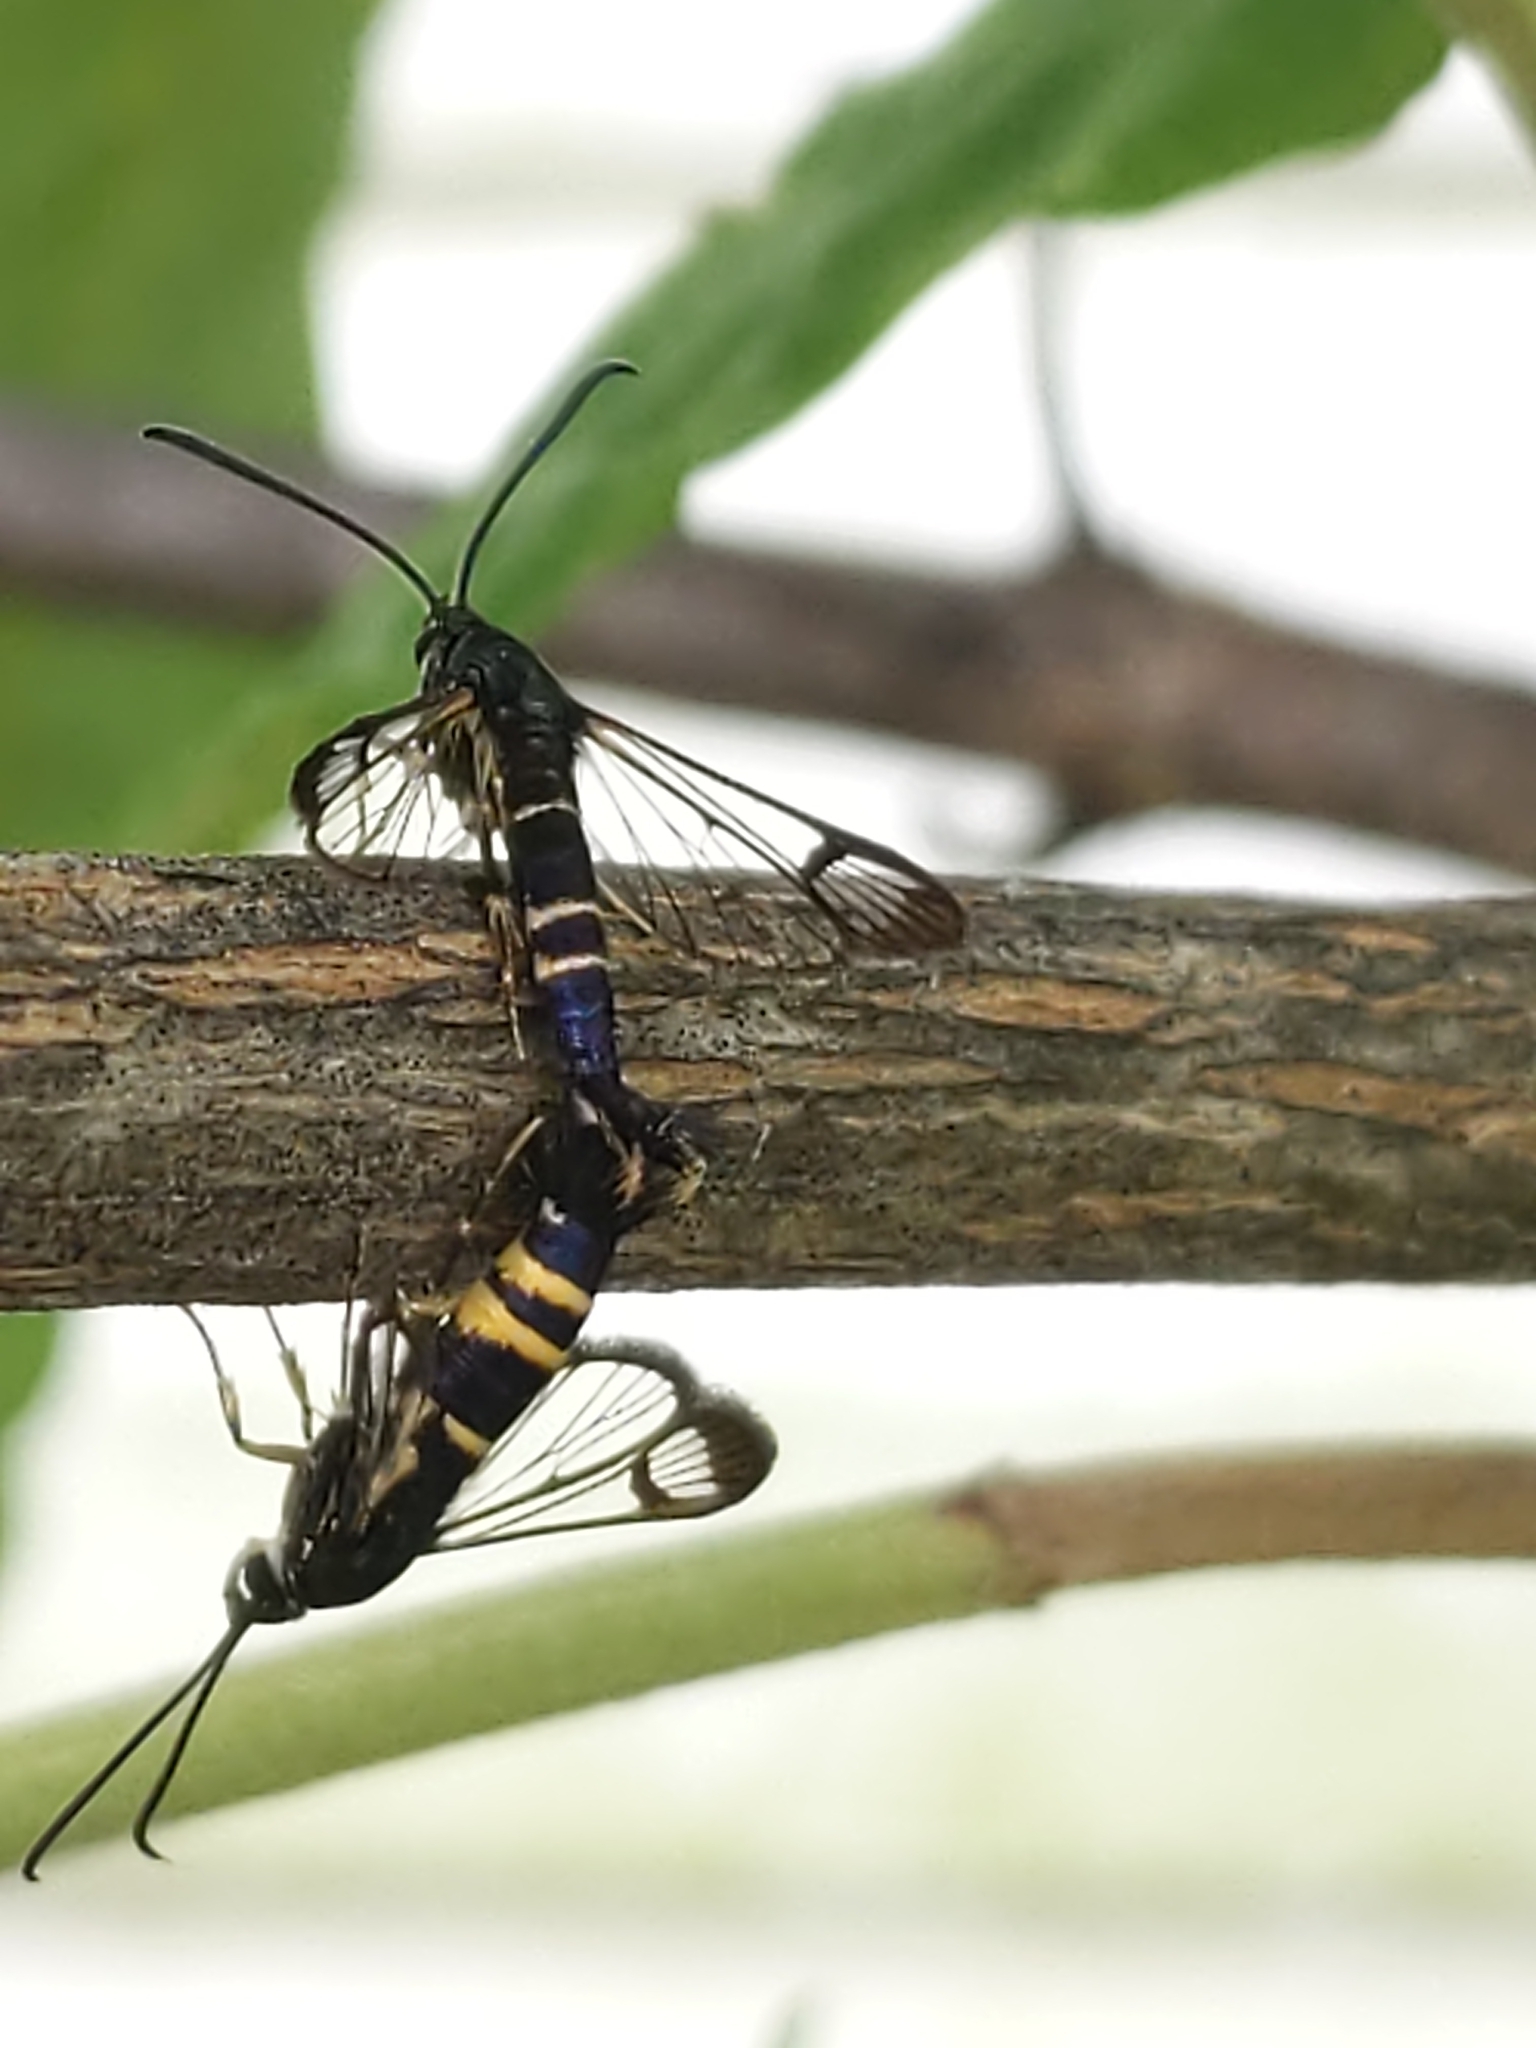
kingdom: Animalia
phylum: Arthropoda
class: Insecta
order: Lepidoptera
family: Sesiidae
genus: Synanthedon
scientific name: Synanthedon rhododendri
